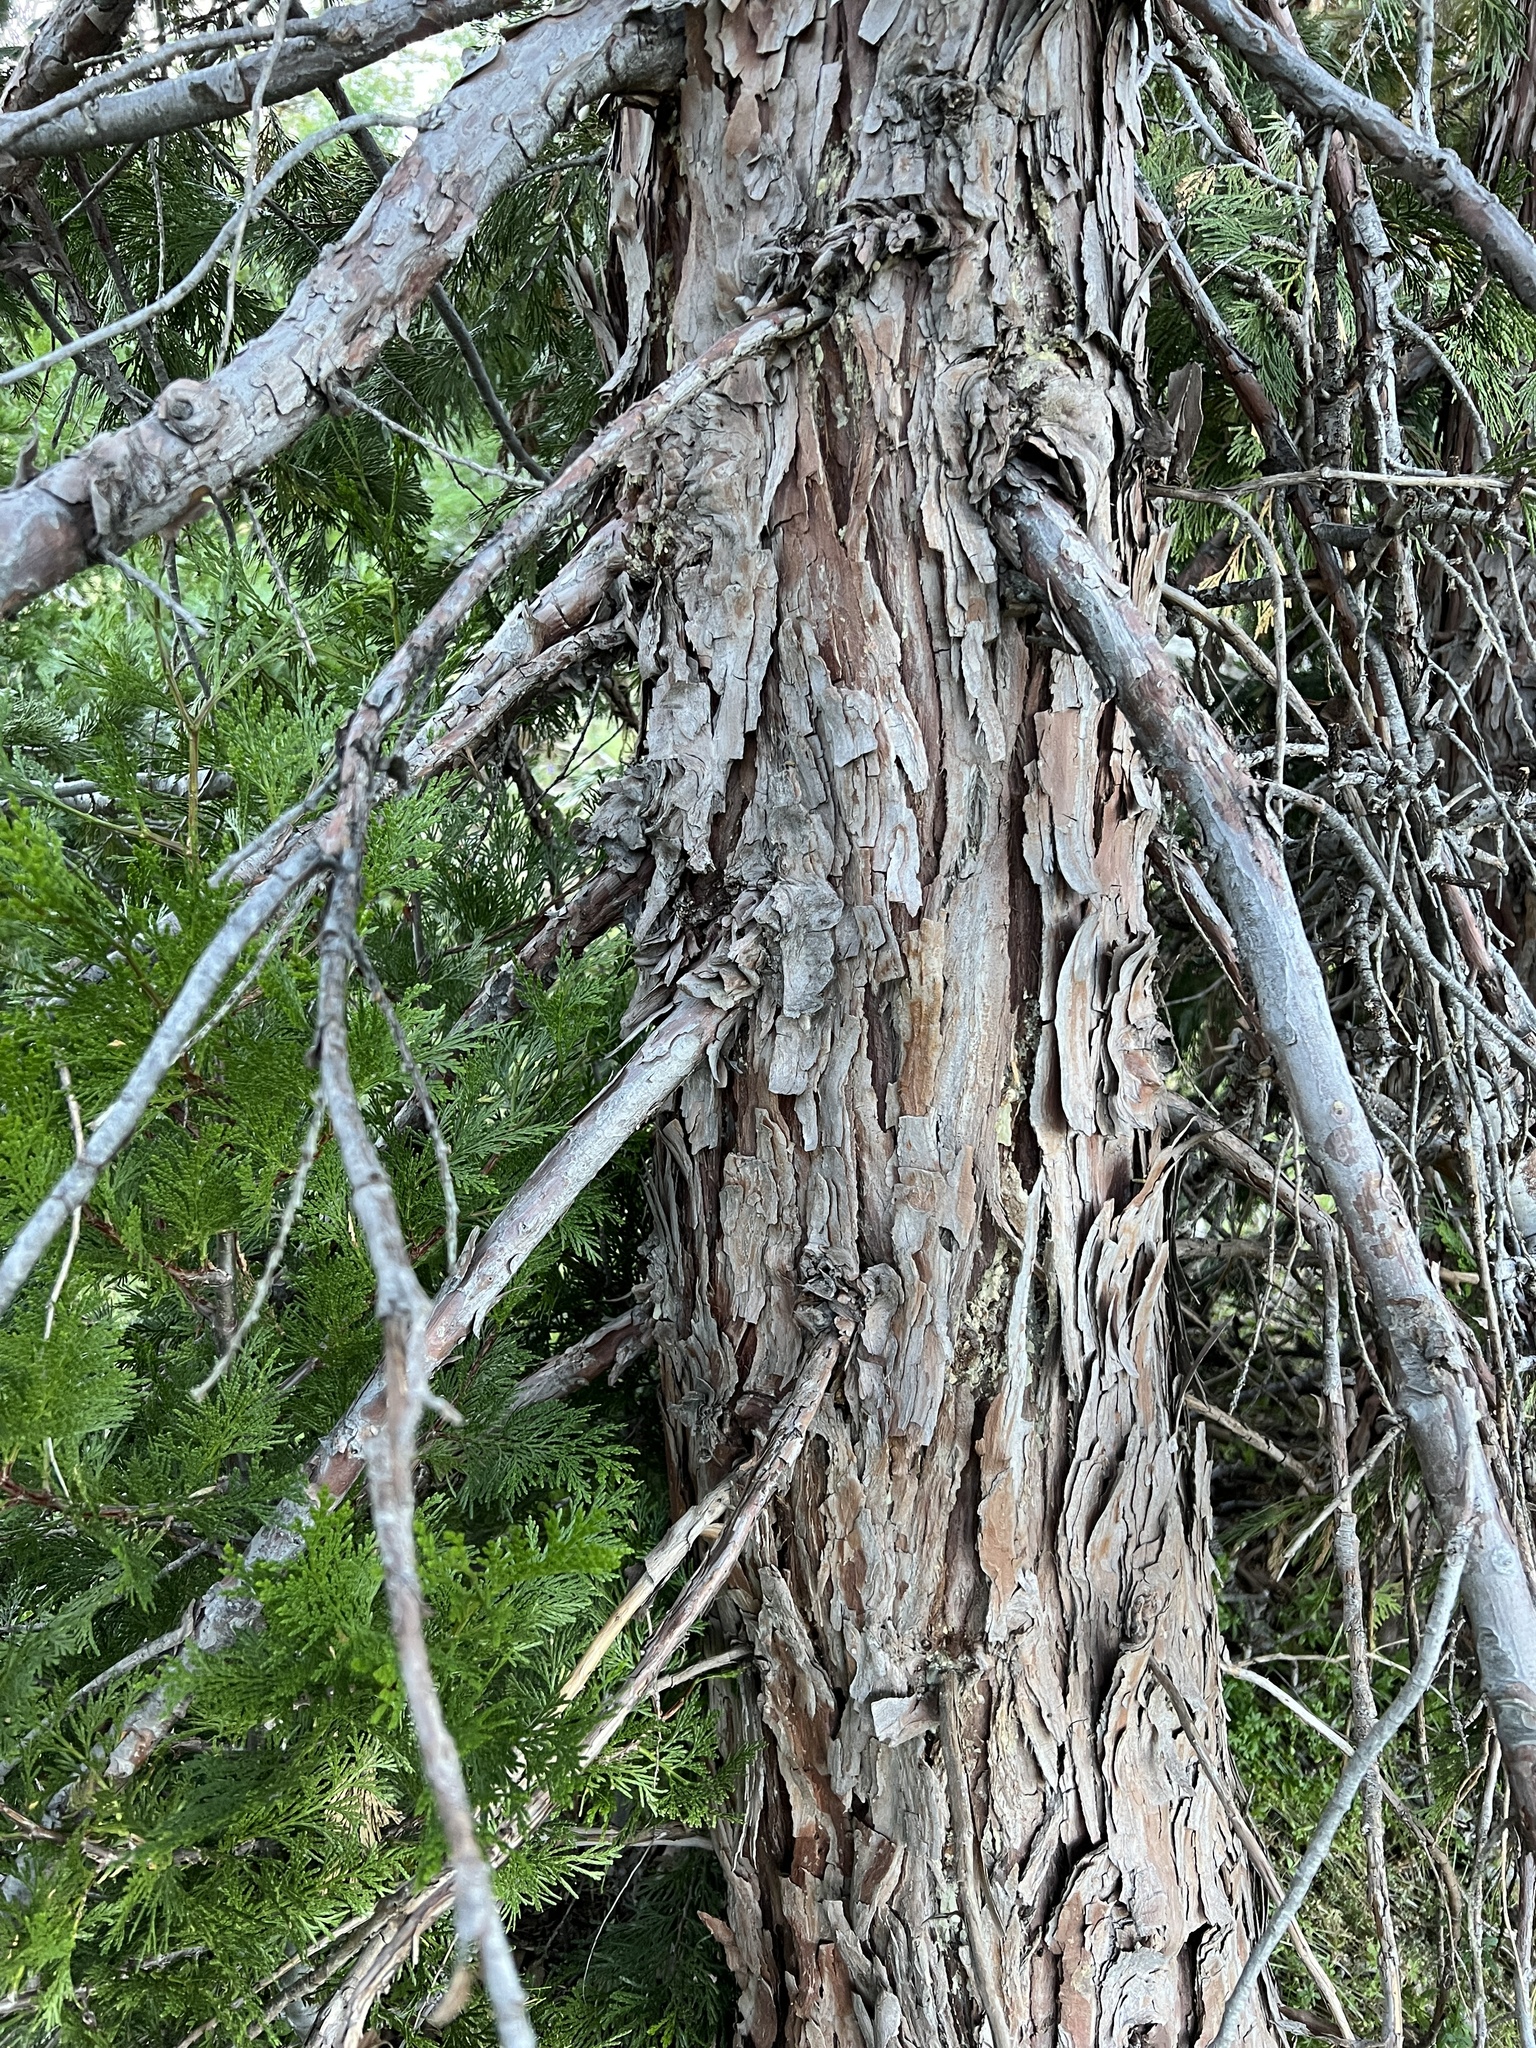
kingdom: Plantae
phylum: Tracheophyta
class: Pinopsida
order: Pinales
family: Cupressaceae
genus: Calocedrus
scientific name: Calocedrus decurrens
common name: Californian incense-cedar
